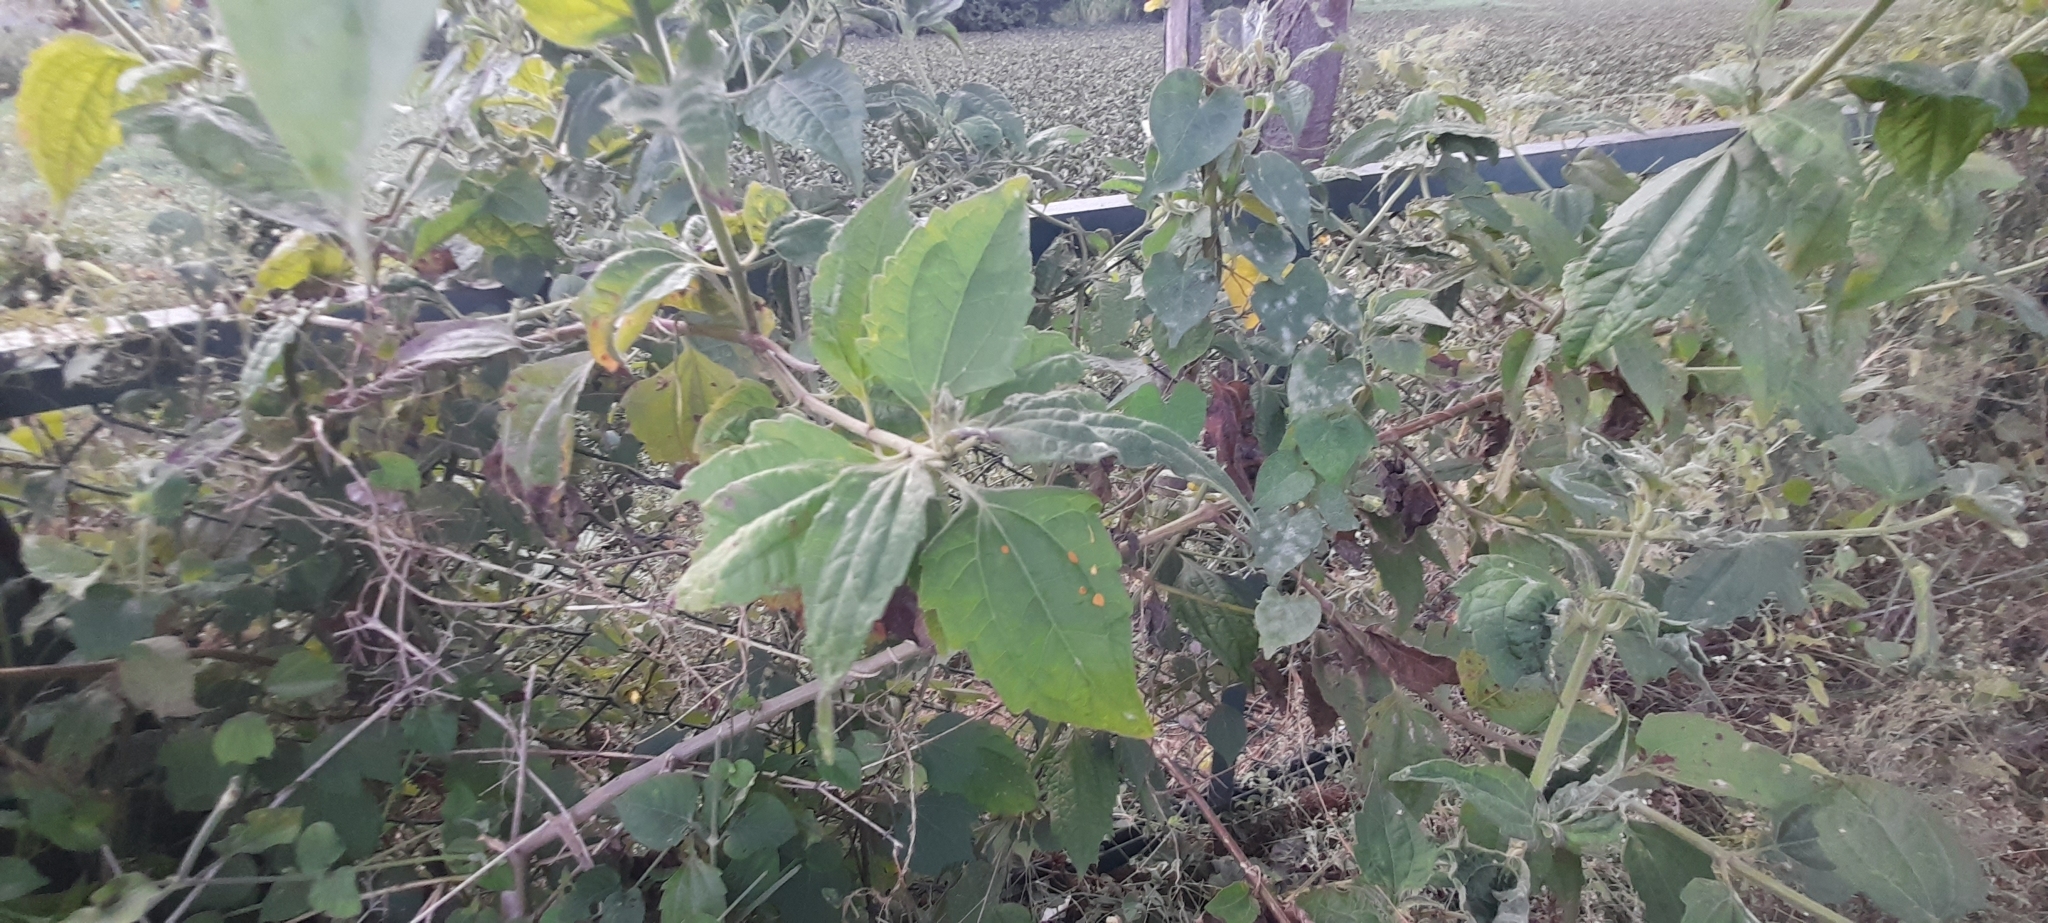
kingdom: Plantae
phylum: Tracheophyta
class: Magnoliopsida
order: Asterales
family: Asteraceae
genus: Chromolaena
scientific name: Chromolaena odorata
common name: Siamweed
